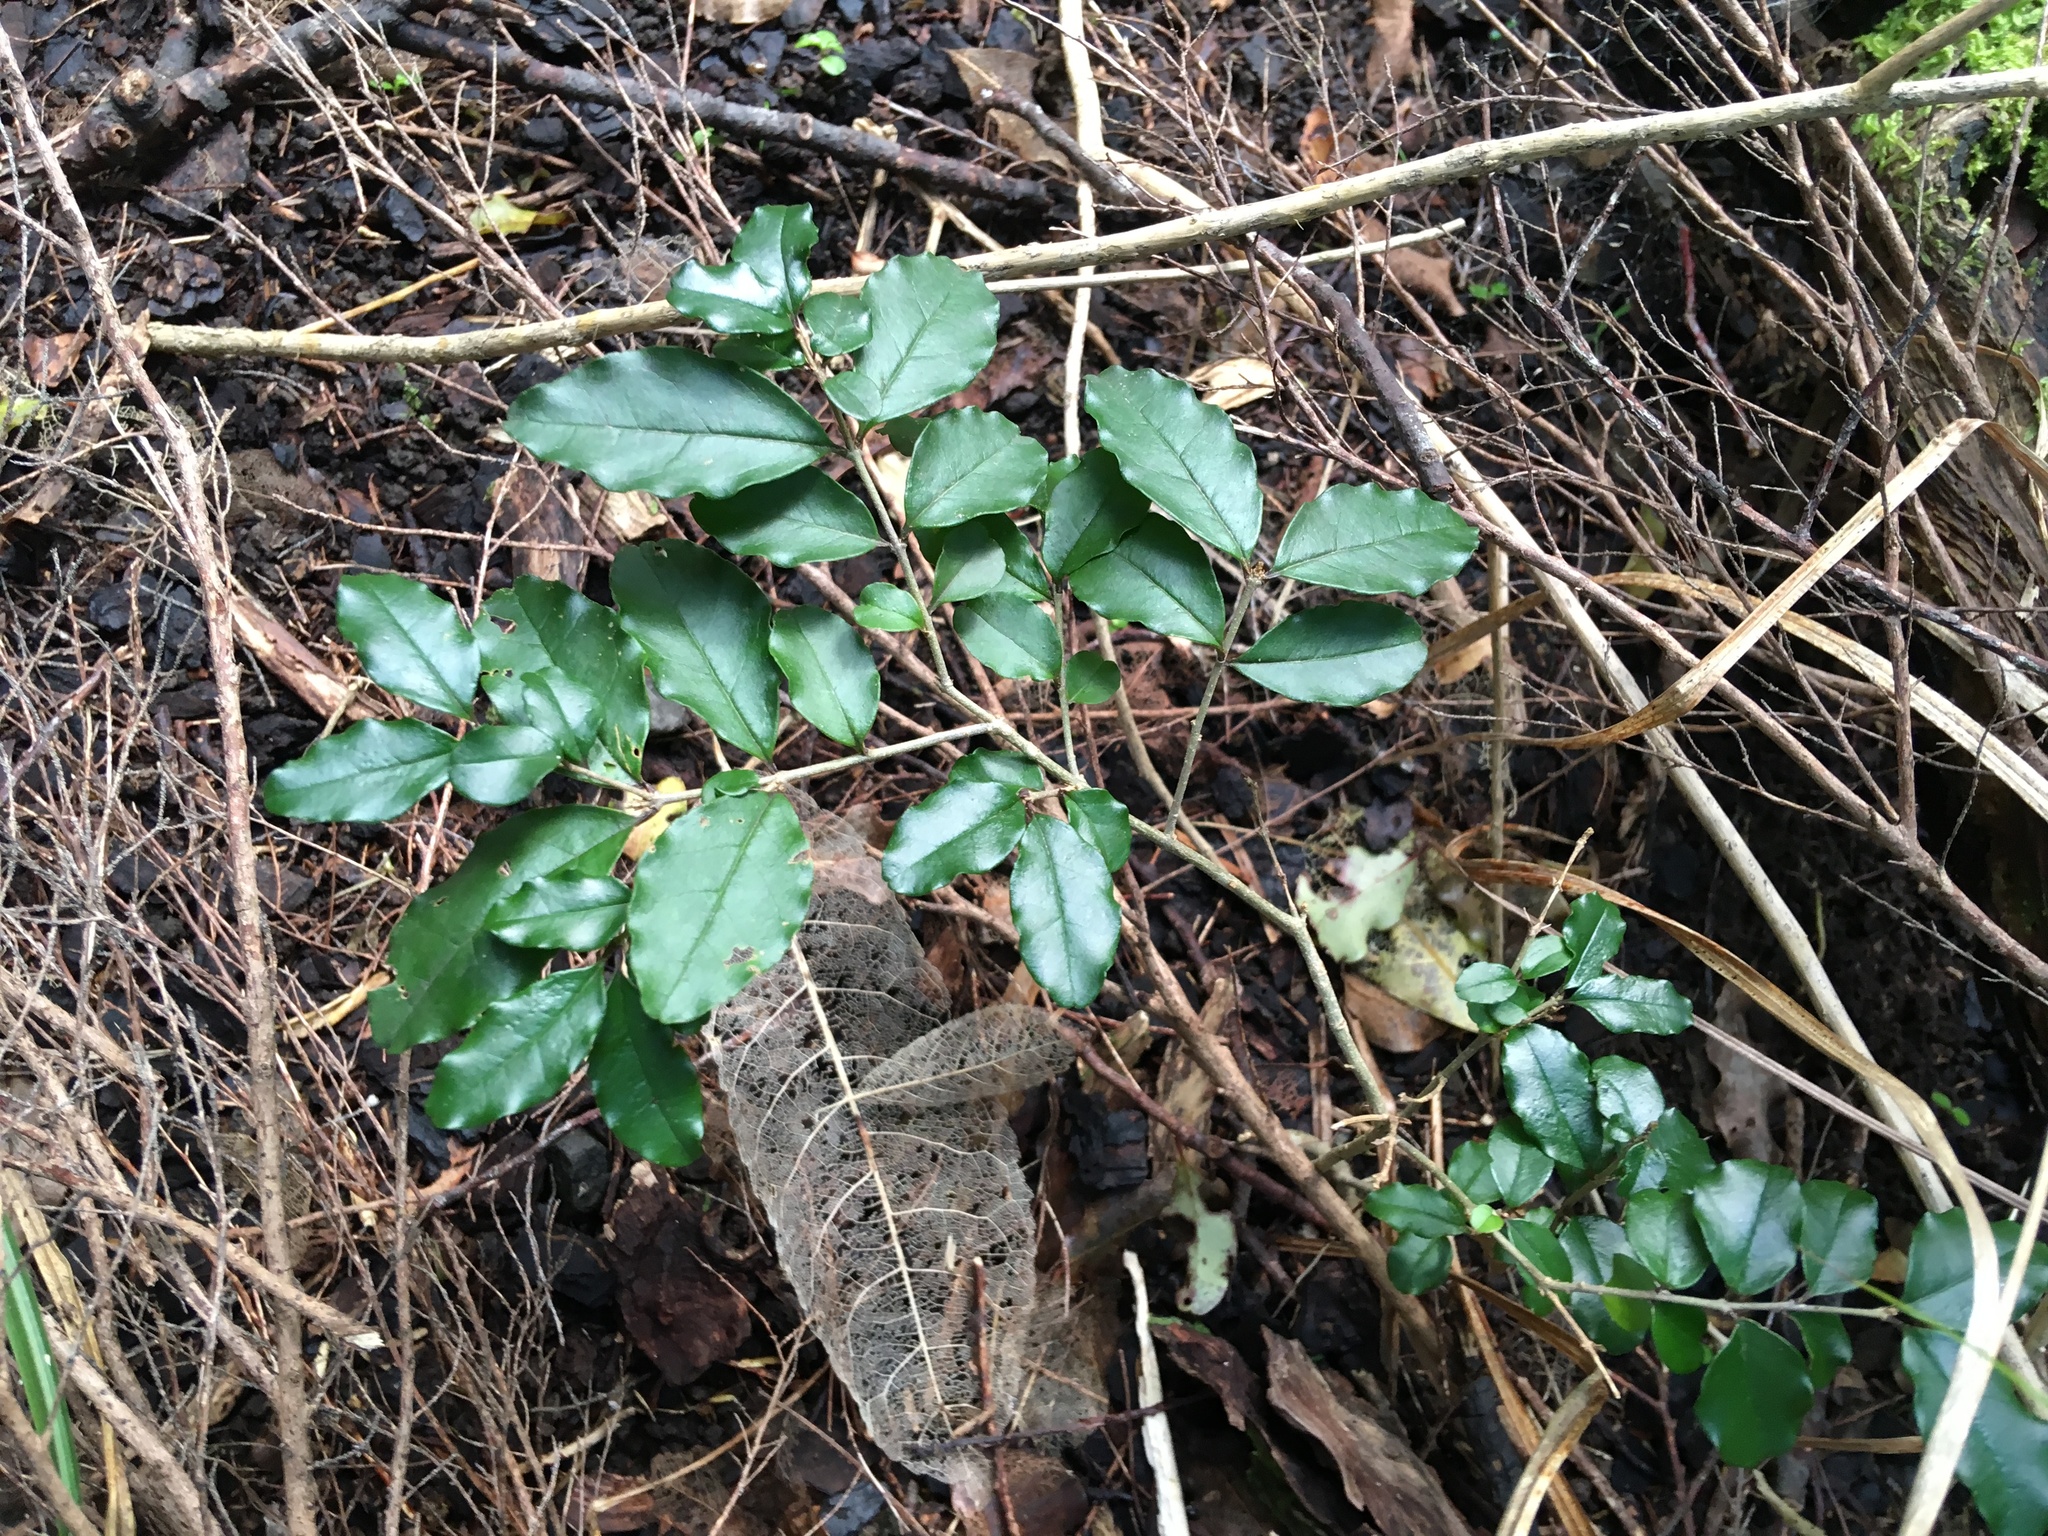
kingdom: Plantae
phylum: Tracheophyta
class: Magnoliopsida
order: Lamiales
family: Oleaceae
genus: Ligustrum
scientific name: Ligustrum sinense
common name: Chinese privet
